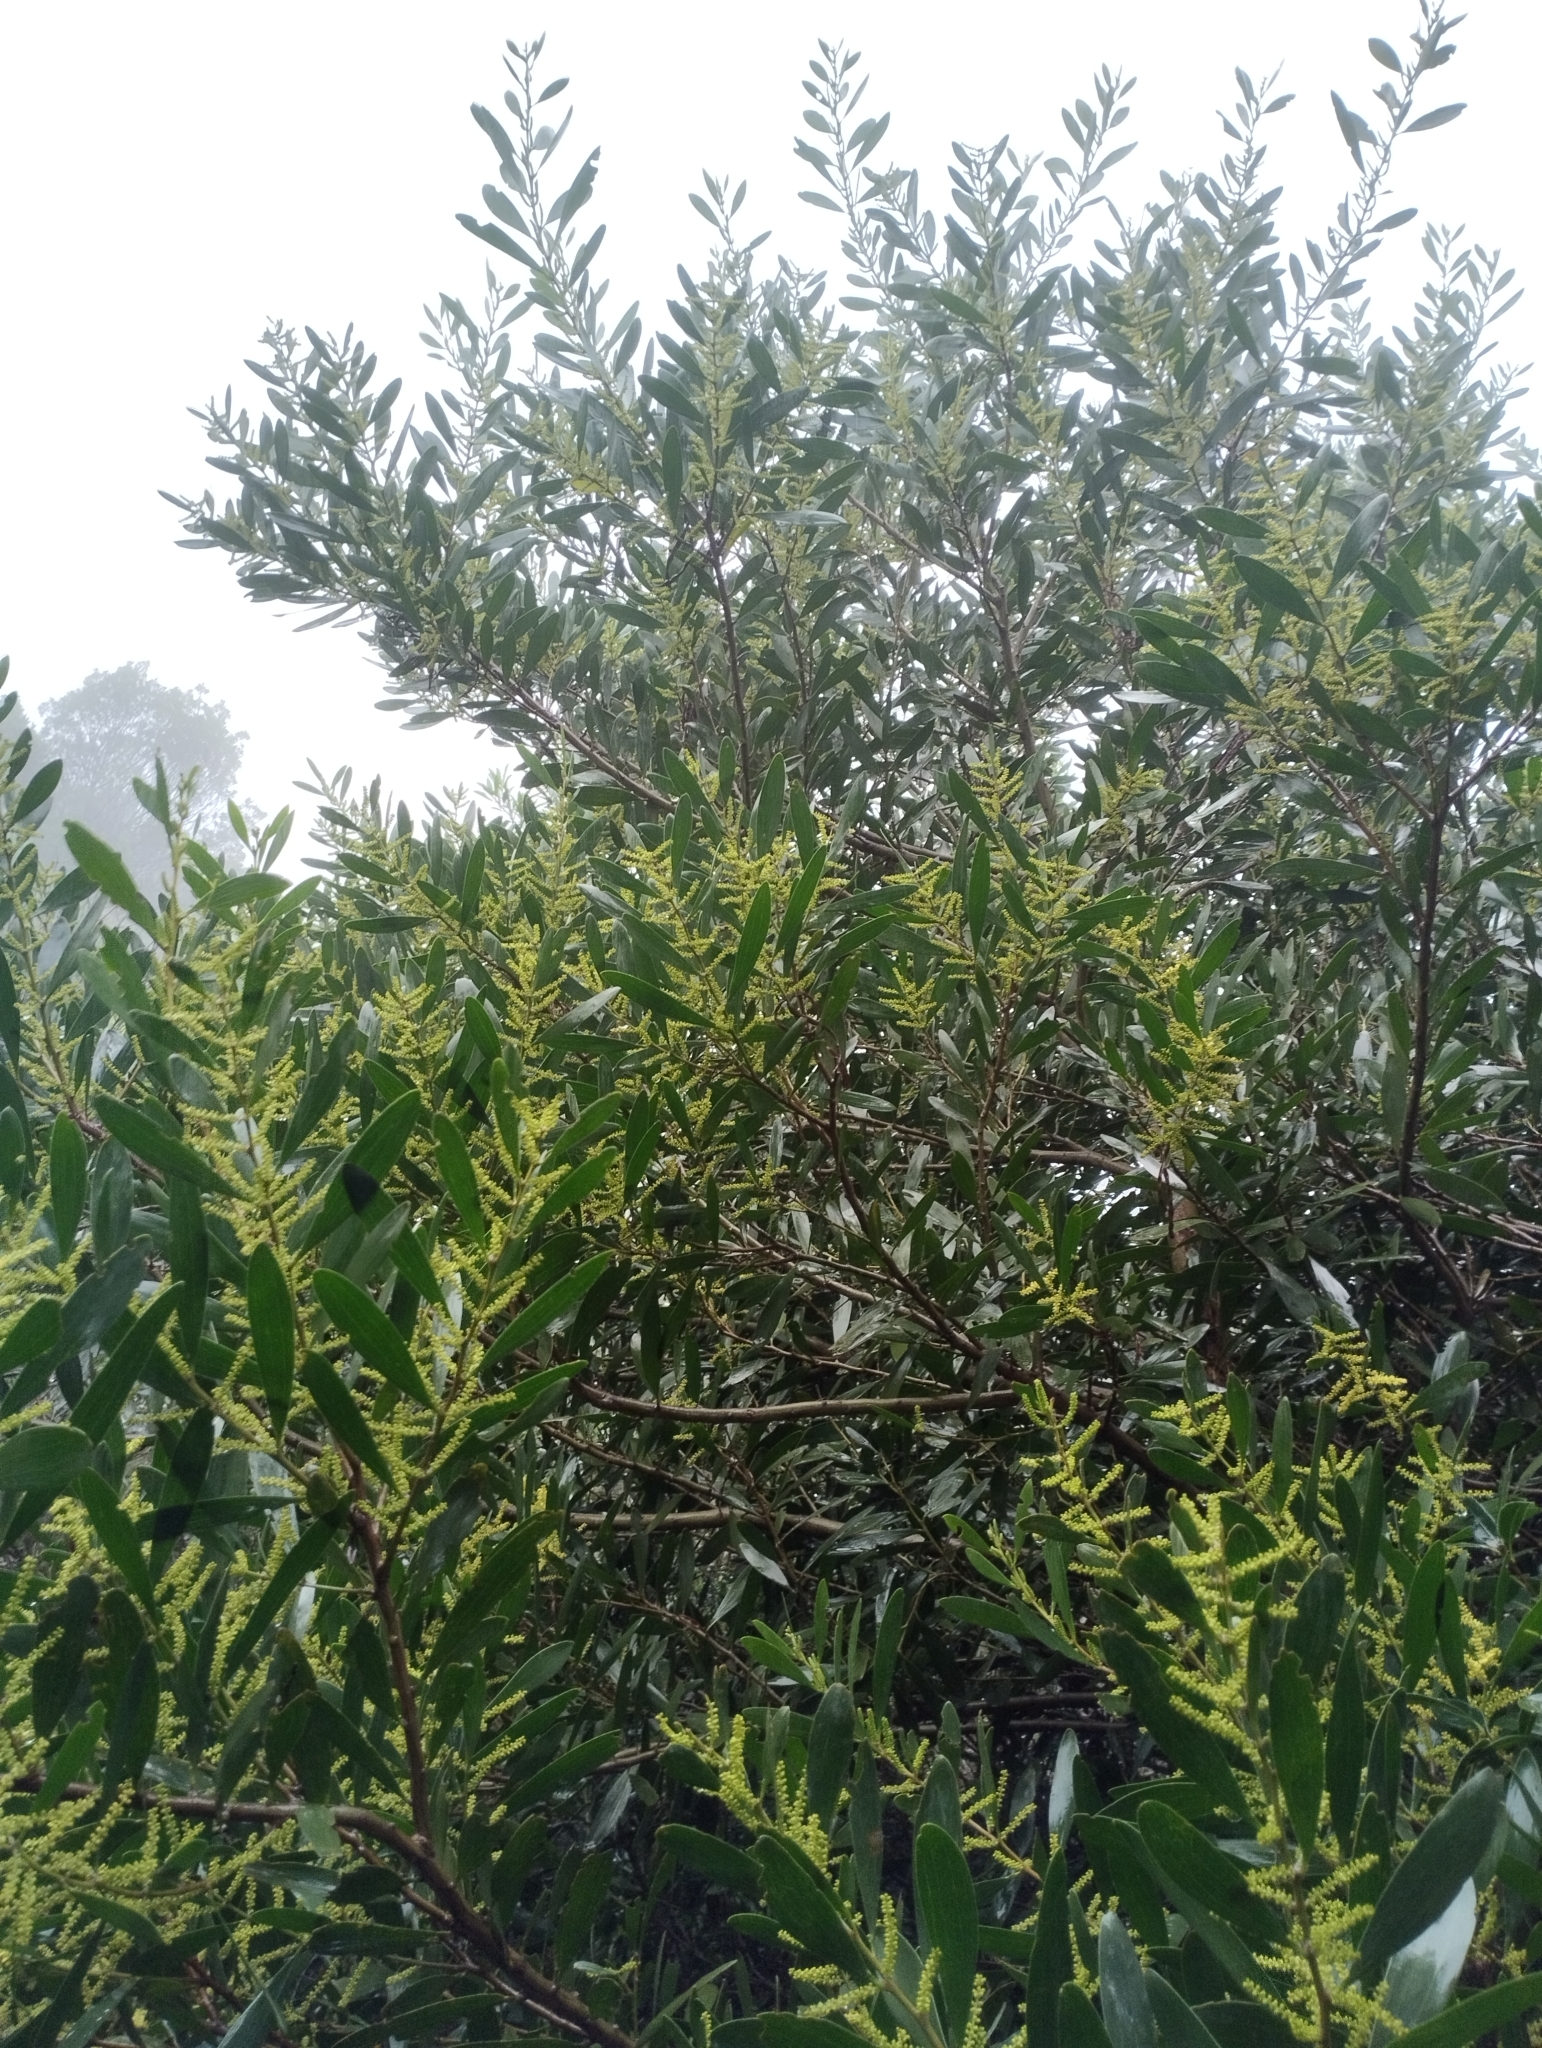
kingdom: Plantae
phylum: Tracheophyta
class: Magnoliopsida
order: Fabales
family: Fabaceae
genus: Acacia
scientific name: Acacia longifolia
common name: Sydney golden wattle
